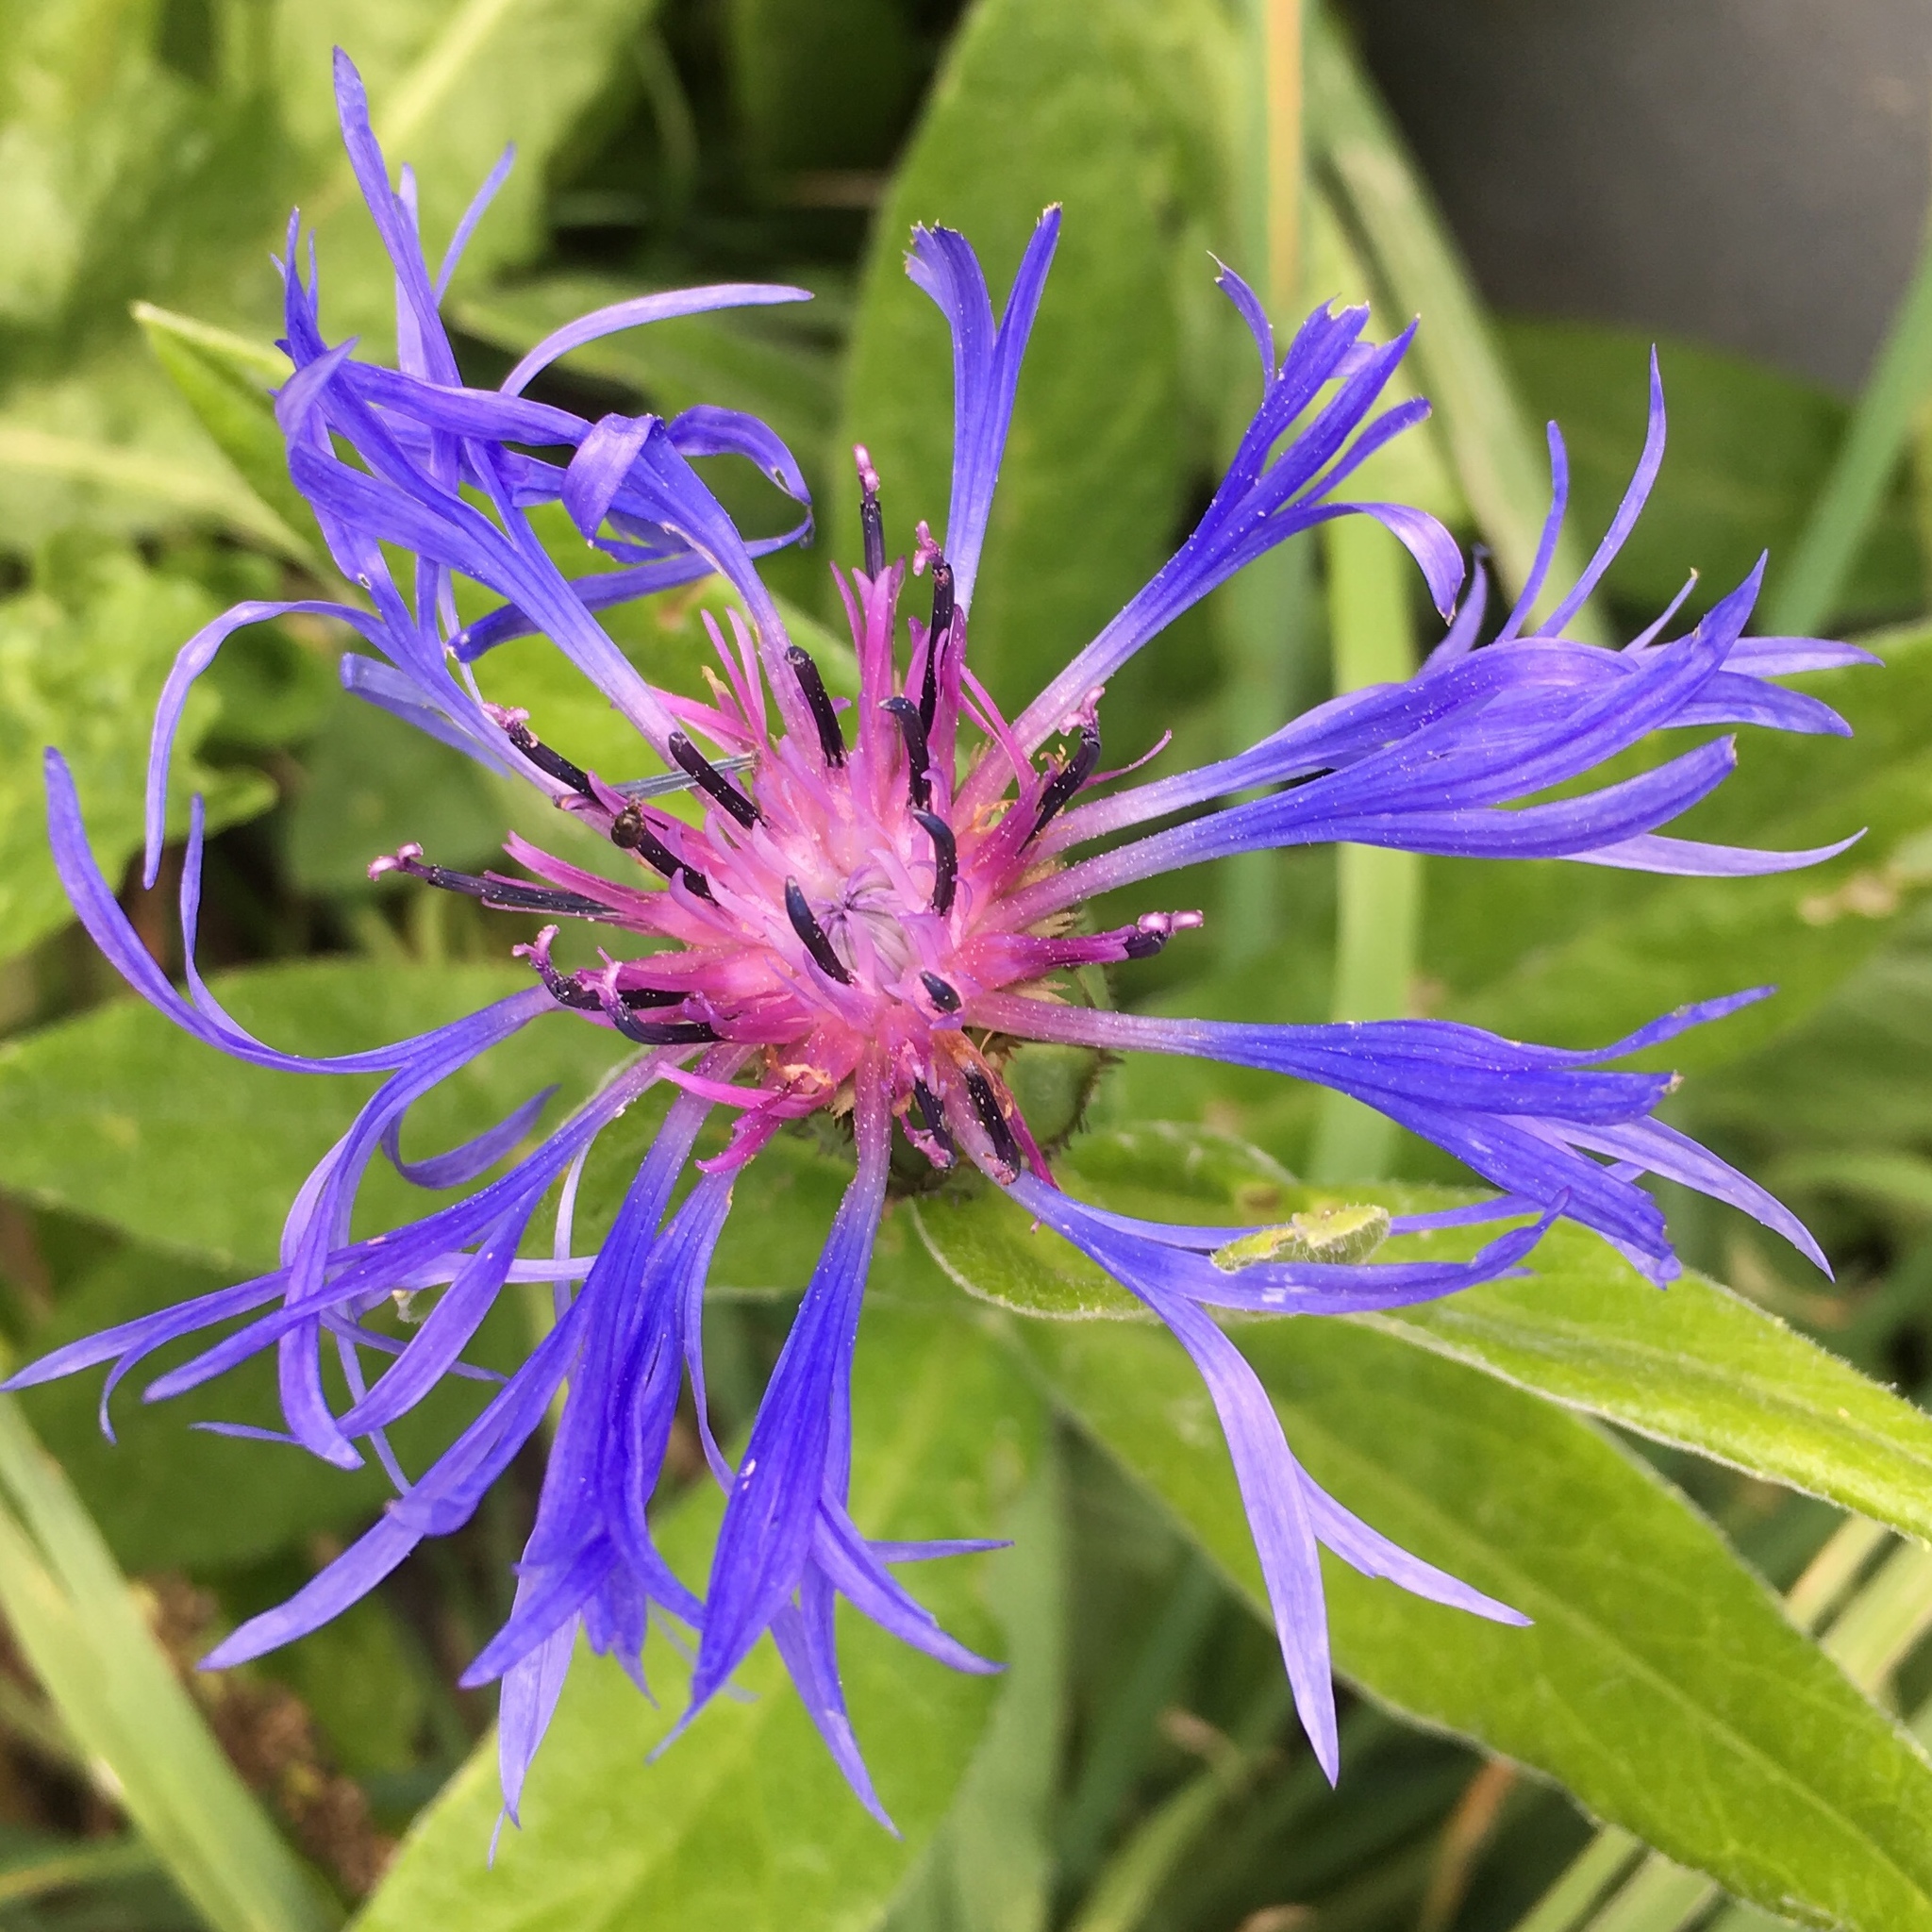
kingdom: Plantae
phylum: Tracheophyta
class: Magnoliopsida
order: Asterales
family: Asteraceae
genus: Centaurea
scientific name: Centaurea montana
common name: Perennial cornflower
